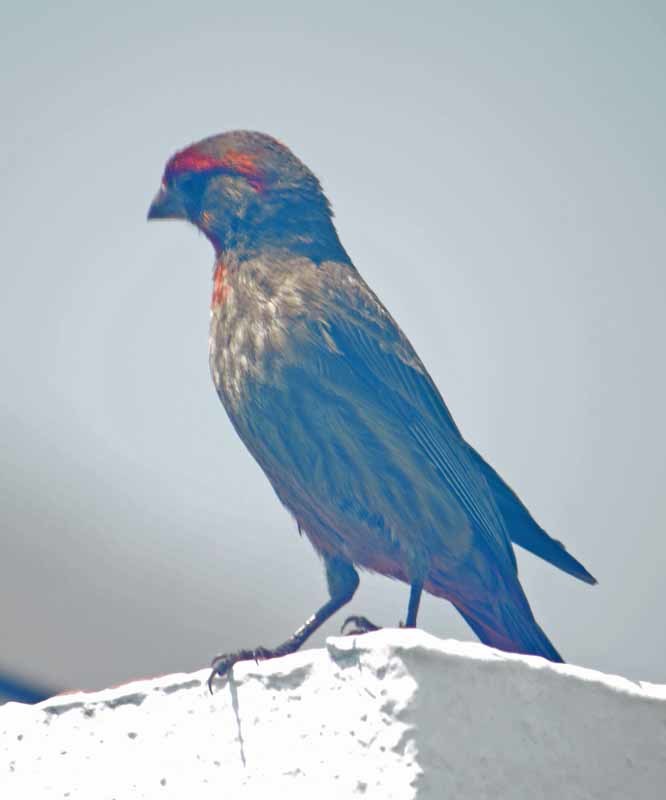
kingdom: Animalia
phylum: Chordata
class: Aves
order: Passeriformes
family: Fringillidae
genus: Haemorhous
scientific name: Haemorhous mexicanus
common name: House finch
